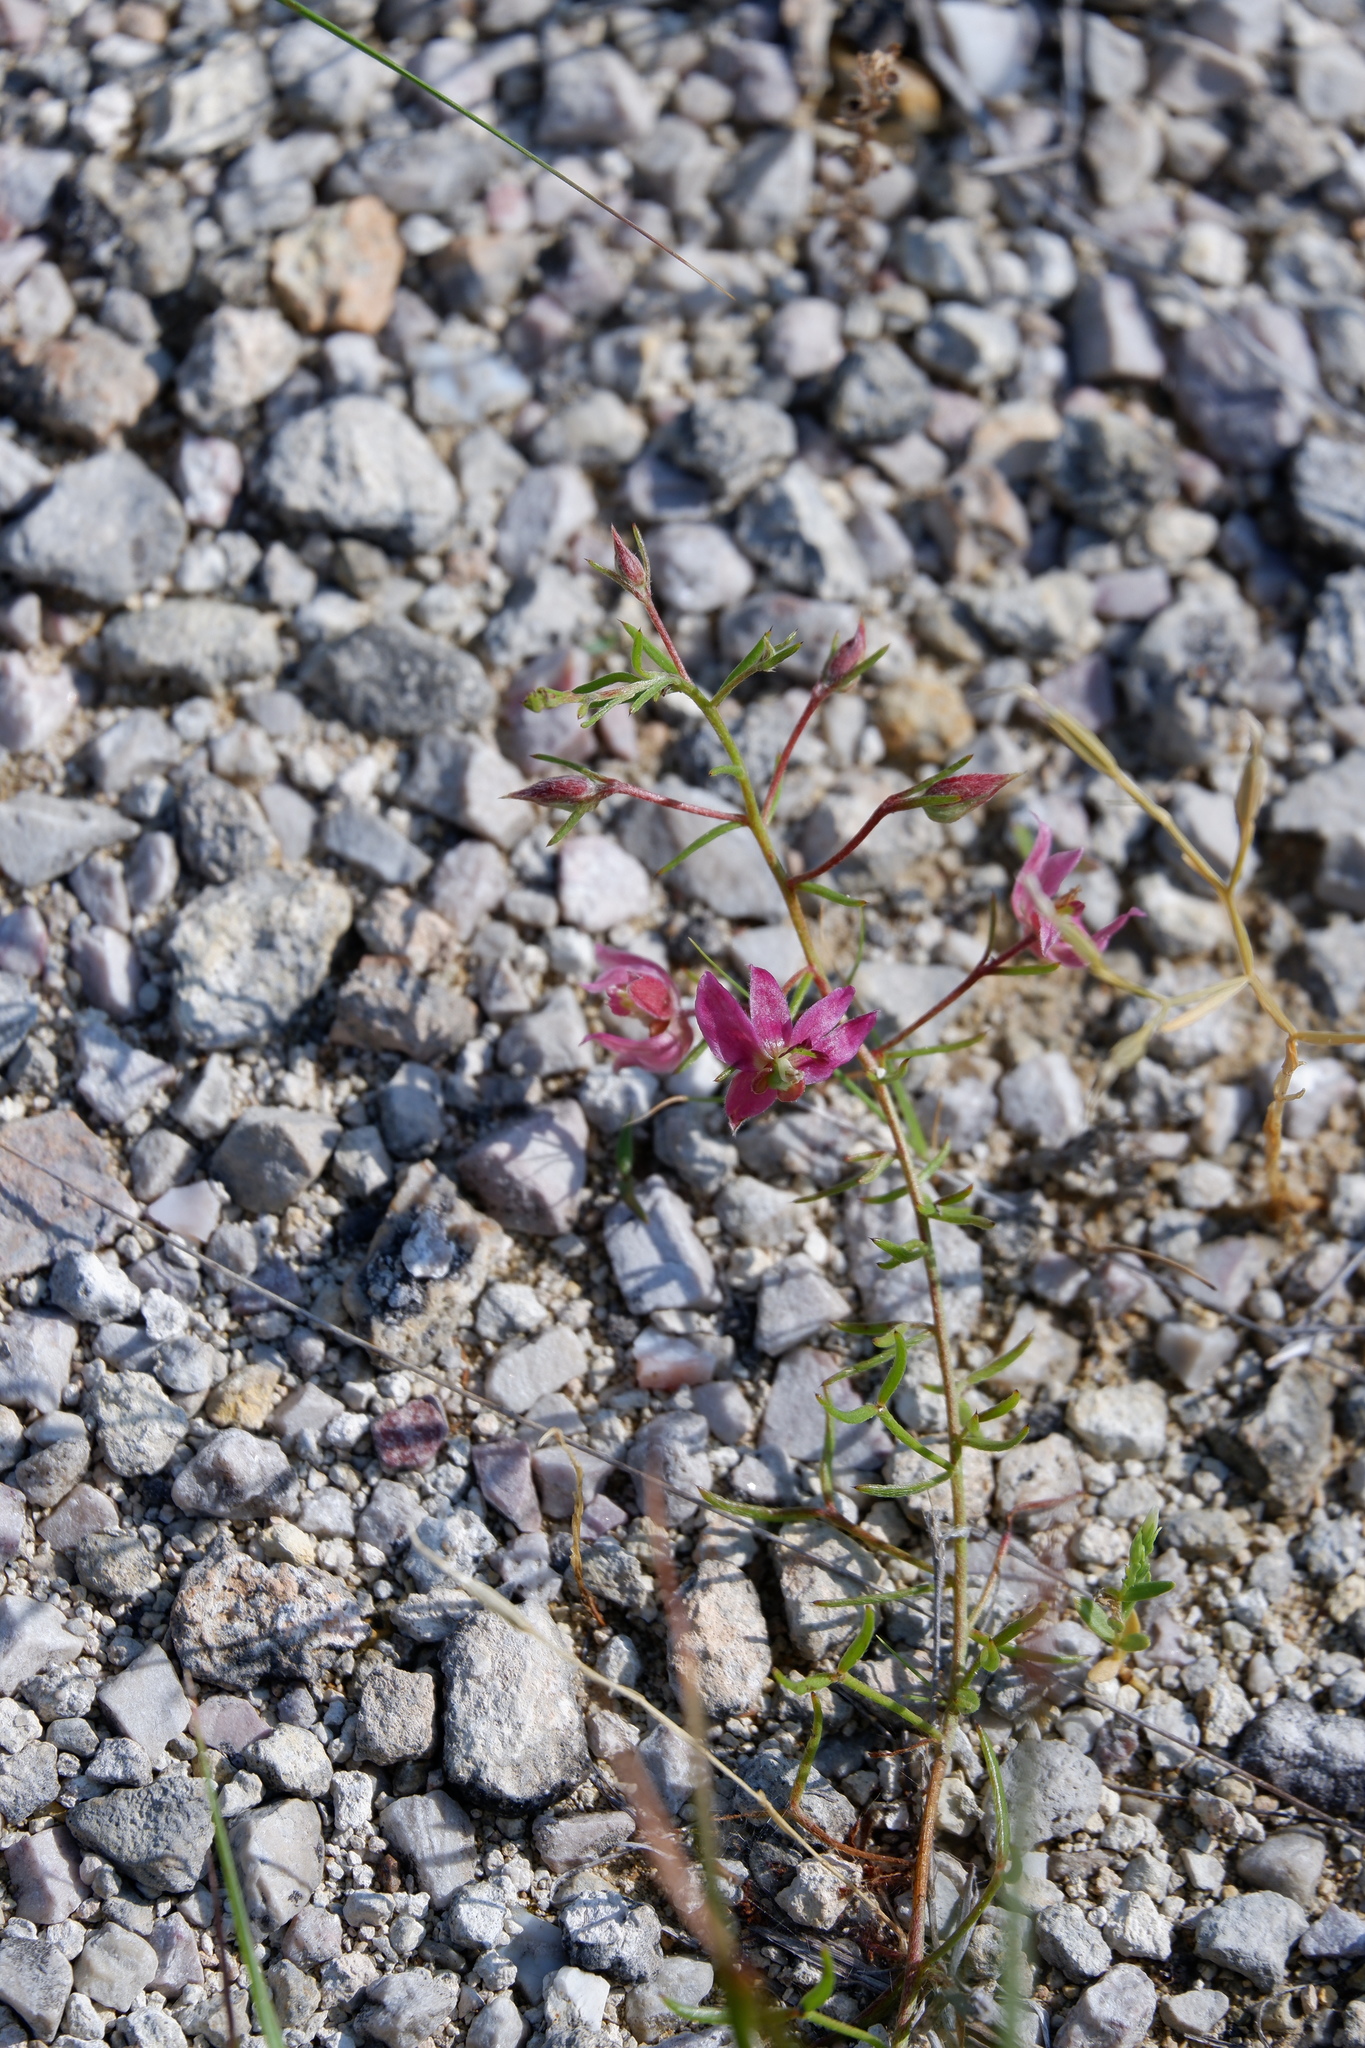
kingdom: Plantae
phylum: Tracheophyta
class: Magnoliopsida
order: Zygophyllales
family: Krameriaceae
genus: Krameria
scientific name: Krameria lanceolata
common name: Ratany
